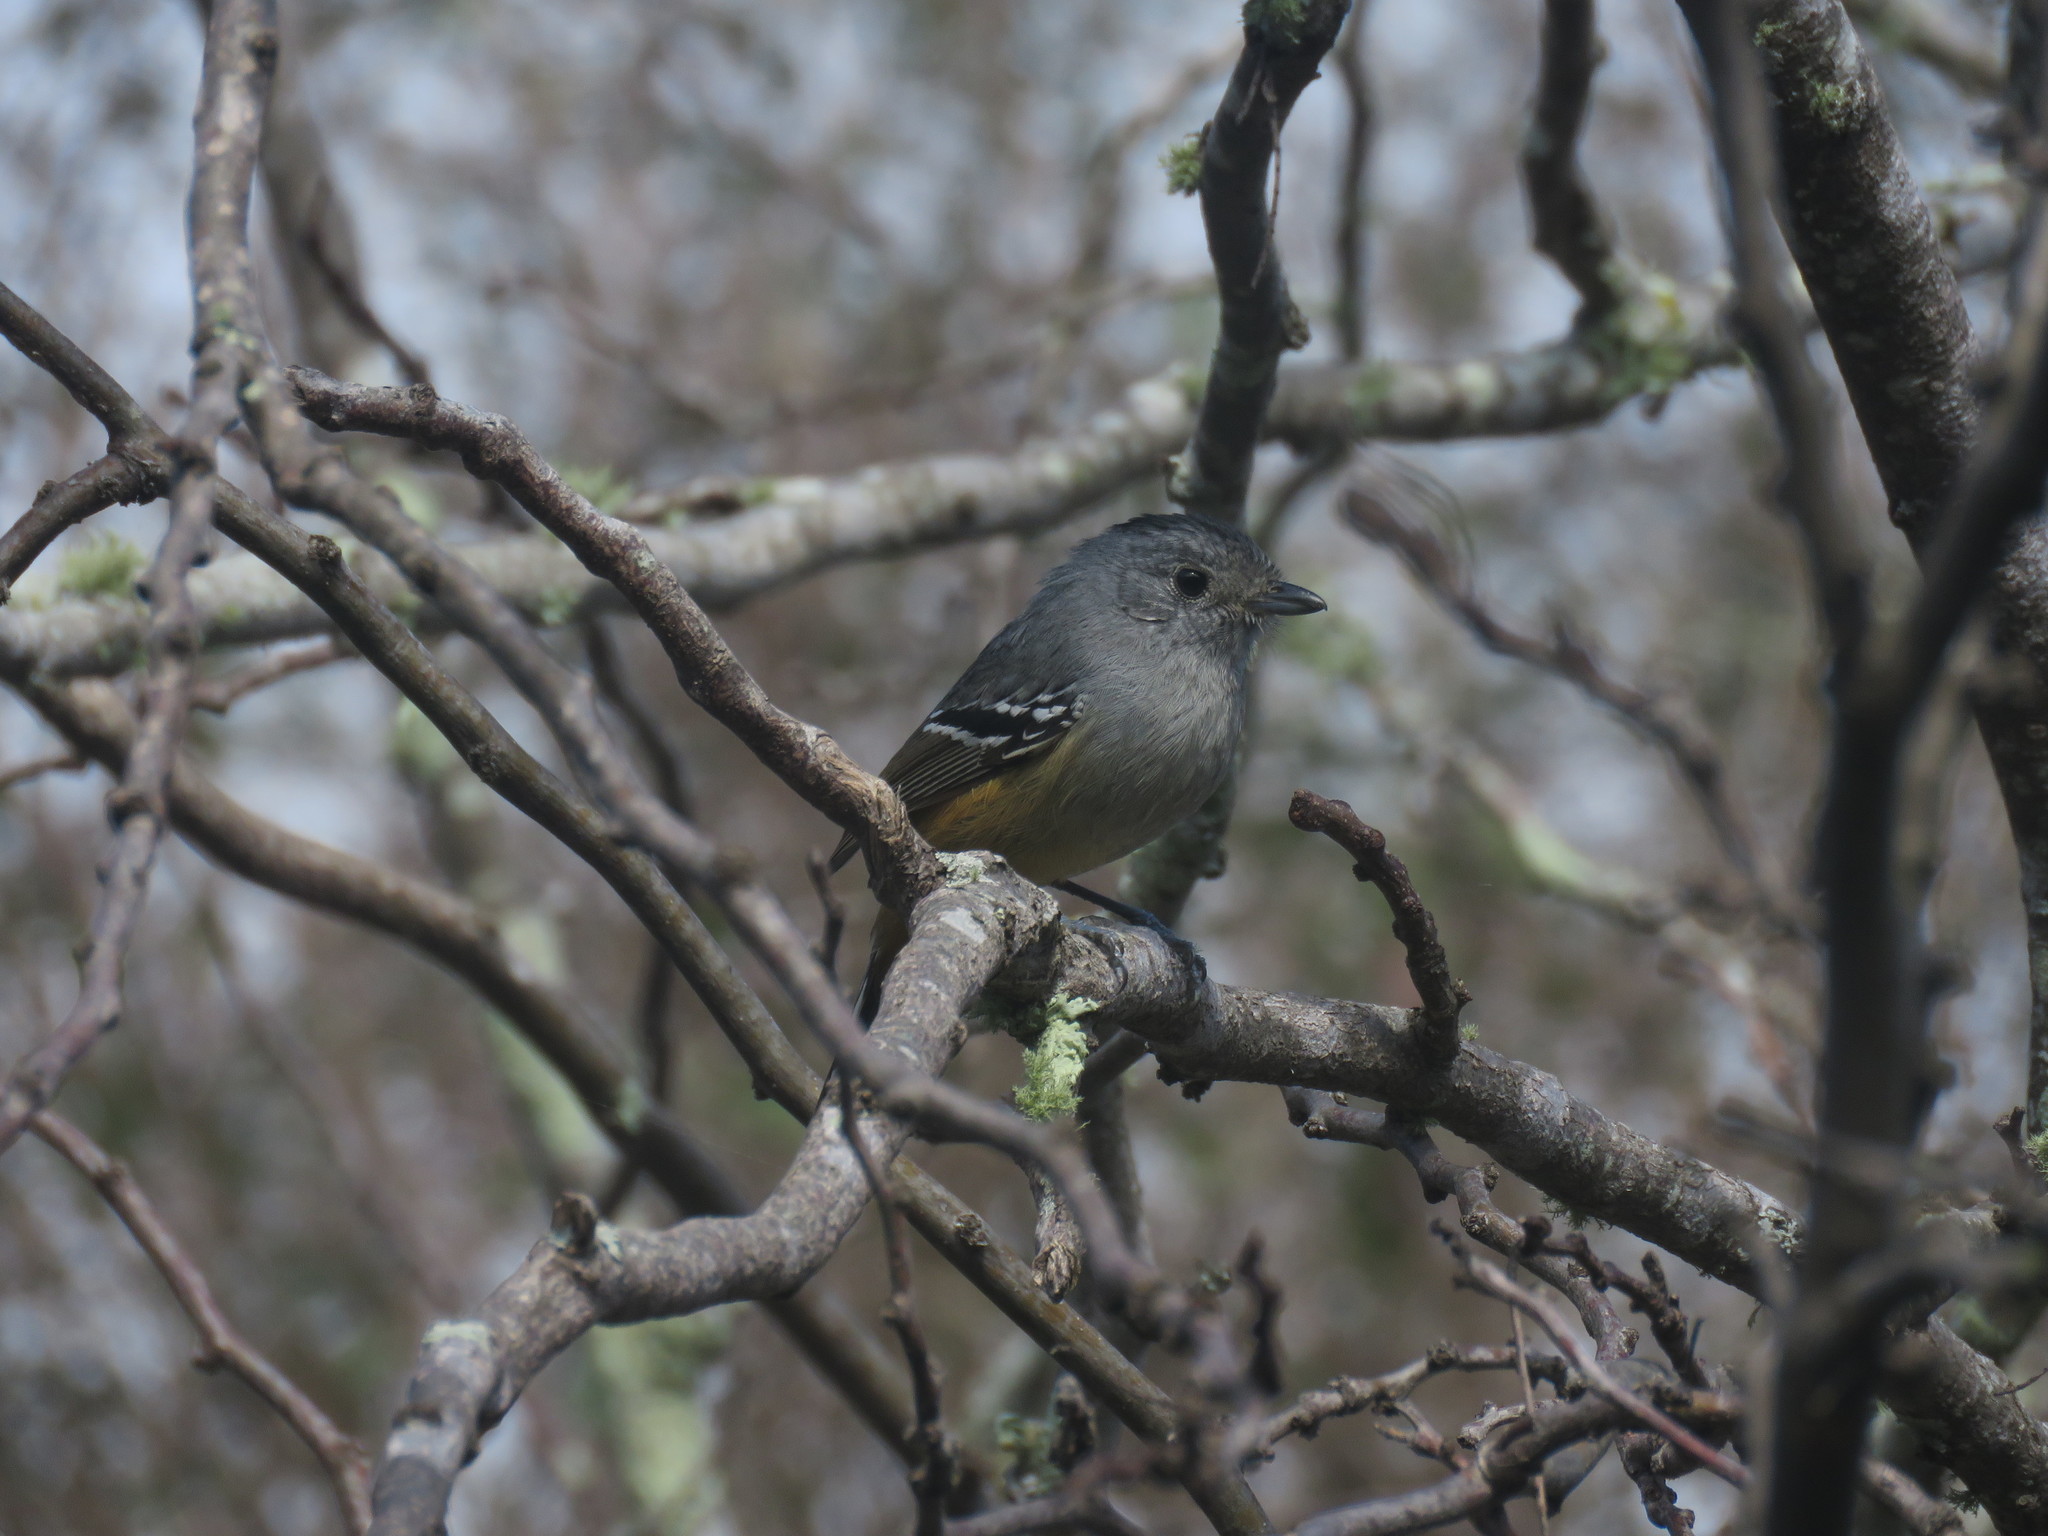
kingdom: Animalia
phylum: Chordata
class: Aves
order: Passeriformes
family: Thamnophilidae
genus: Thamnophilus
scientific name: Thamnophilus caerulescens
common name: Variable antshrike
